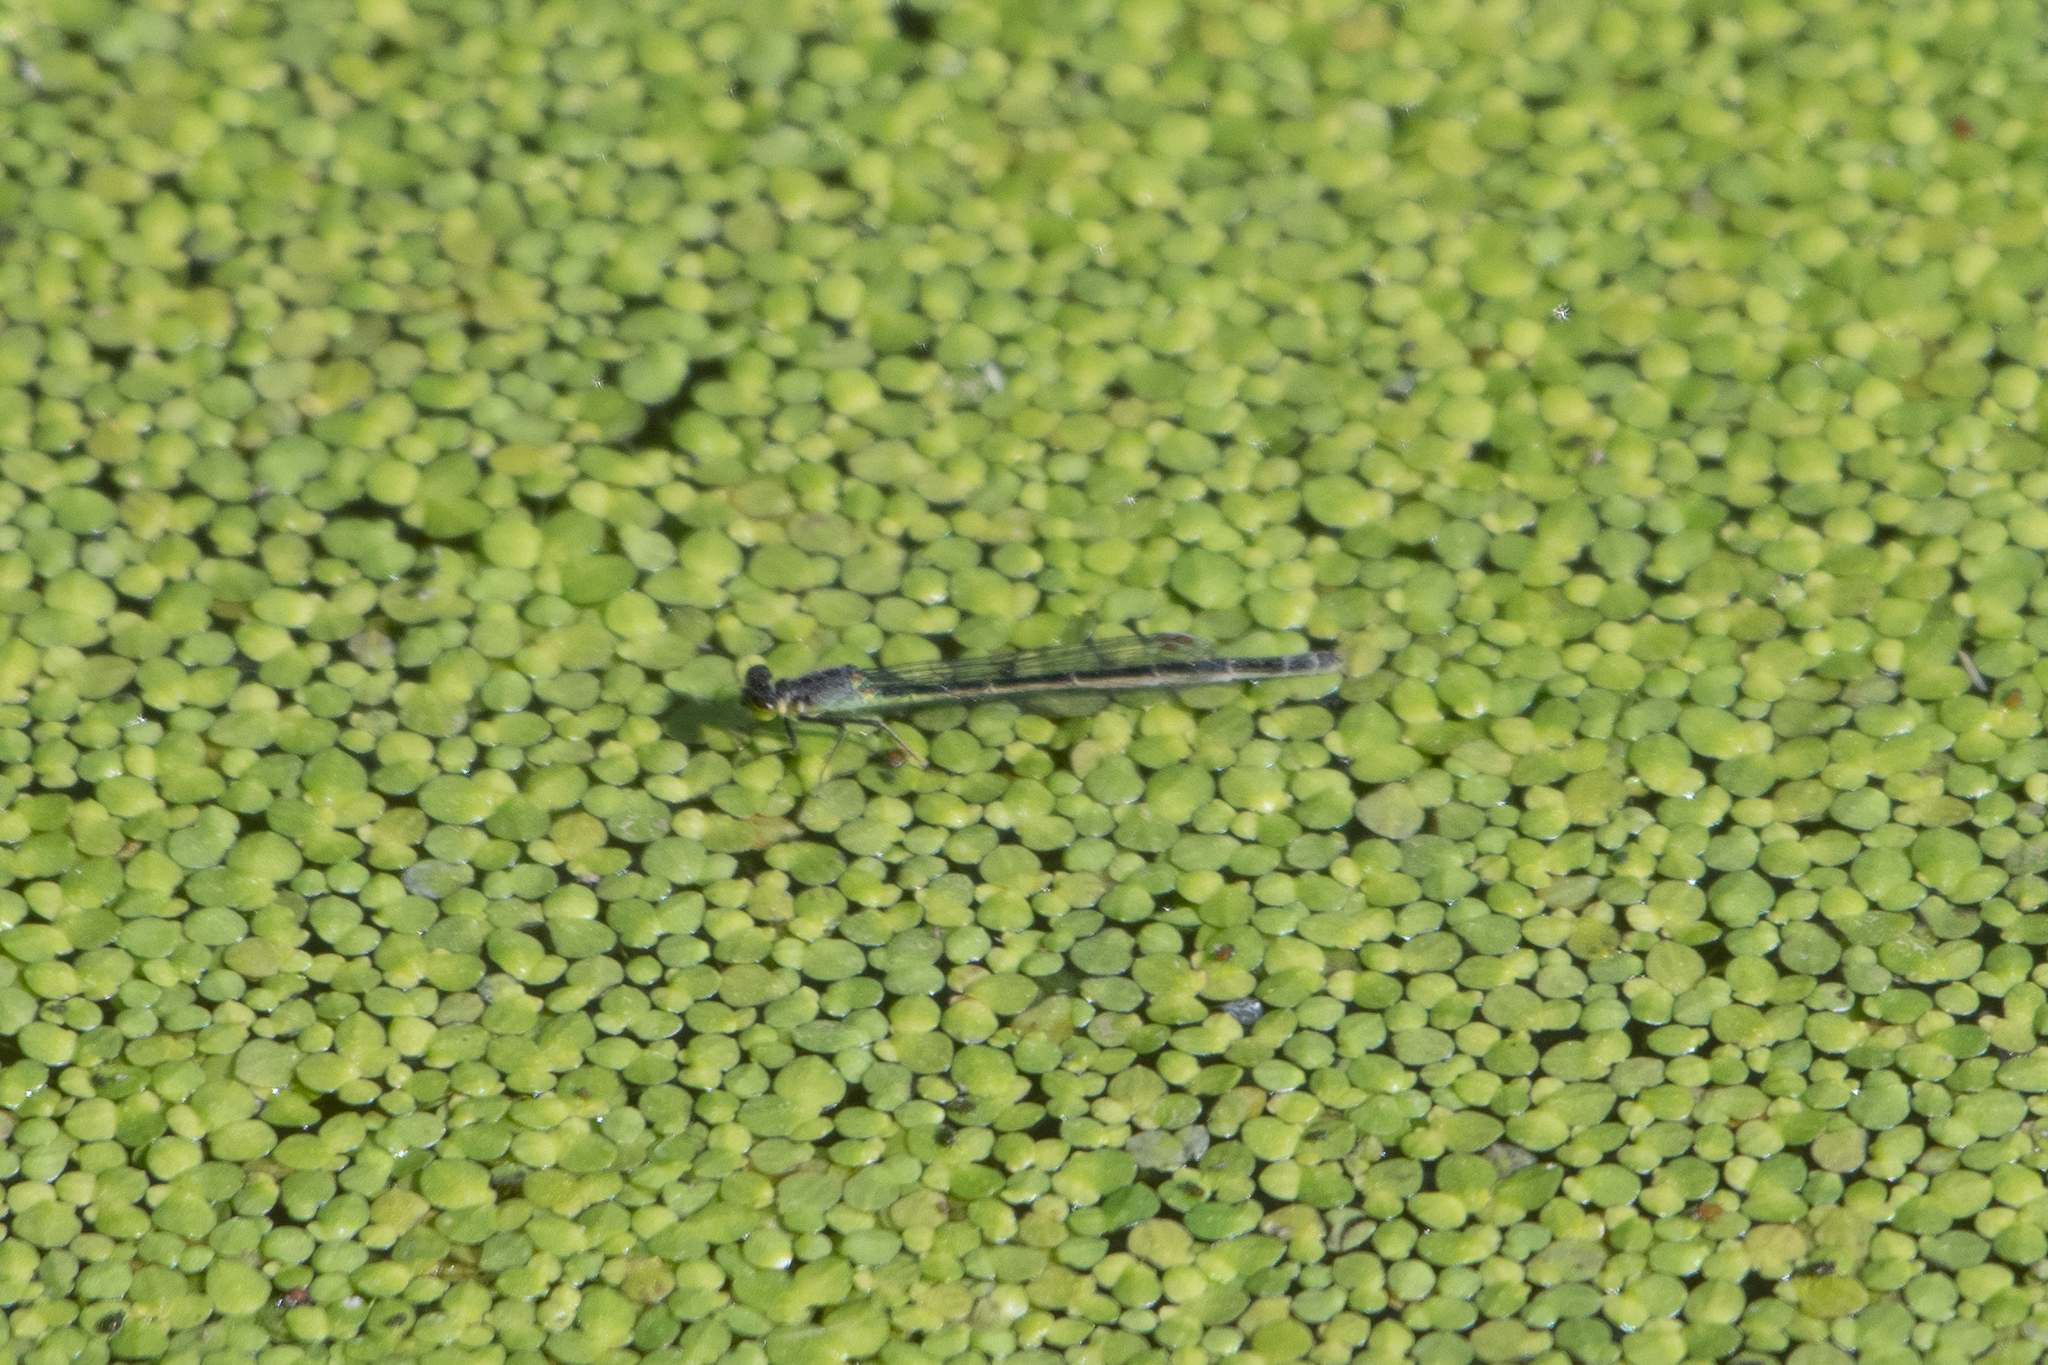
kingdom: Animalia
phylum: Arthropoda
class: Insecta
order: Odonata
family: Coenagrionidae
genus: Ischnura
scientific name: Ischnura cervula
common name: Pacific forktail
